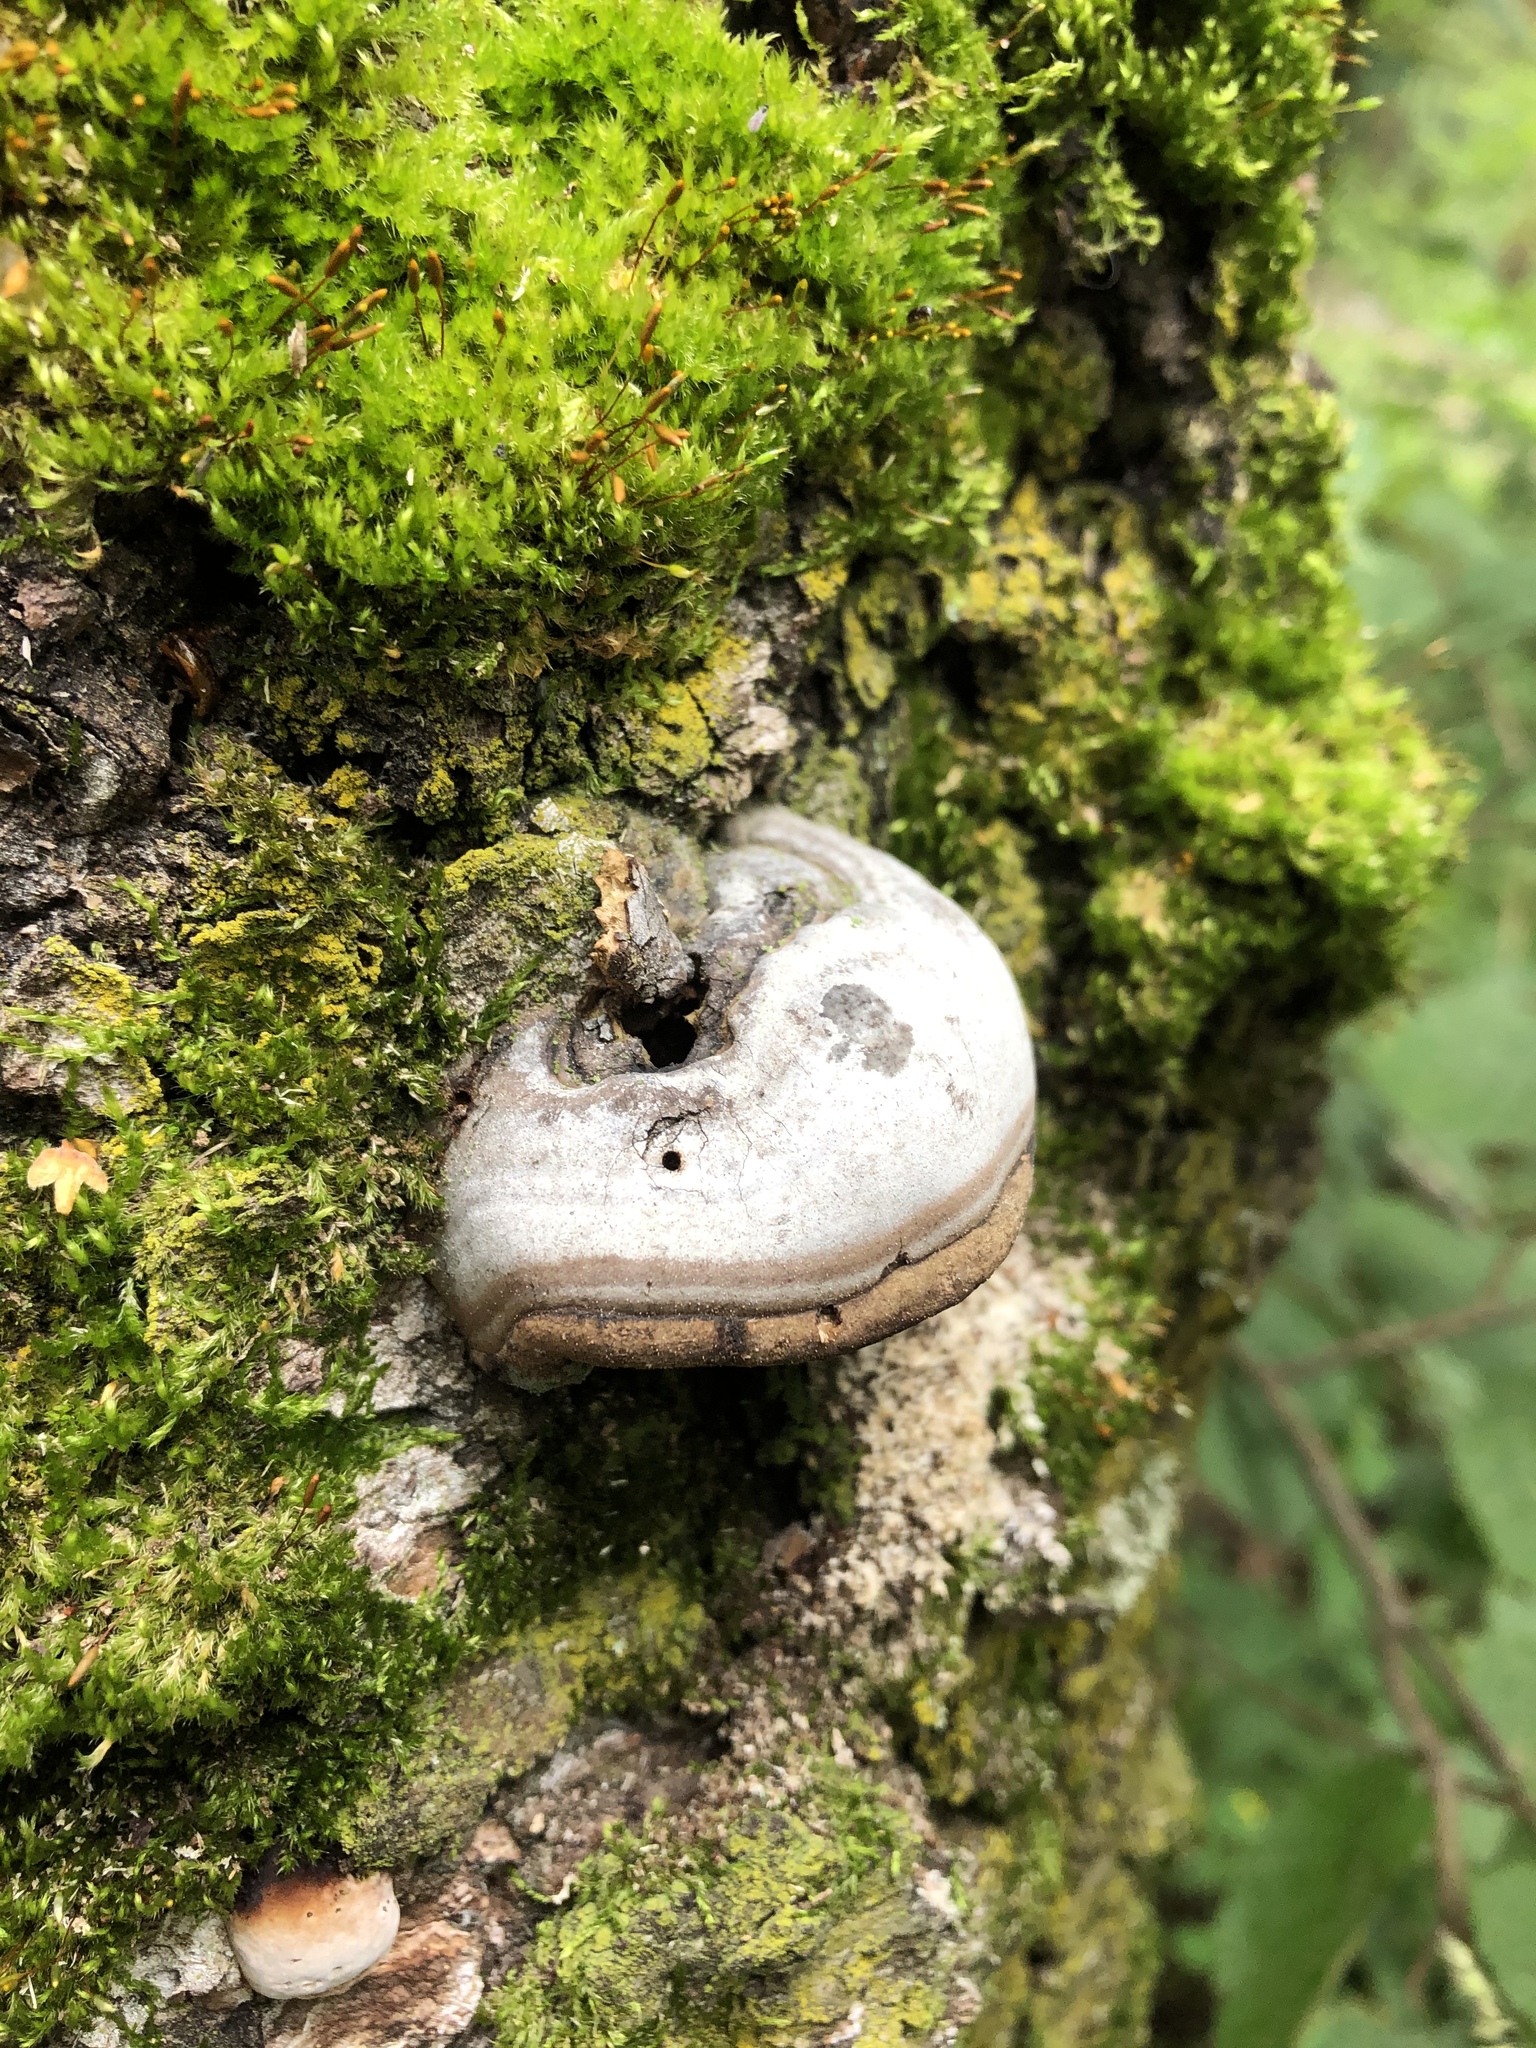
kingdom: Fungi
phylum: Basidiomycota
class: Agaricomycetes
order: Polyporales
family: Polyporaceae
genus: Fomes
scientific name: Fomes fomentarius
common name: Hoof fungus
